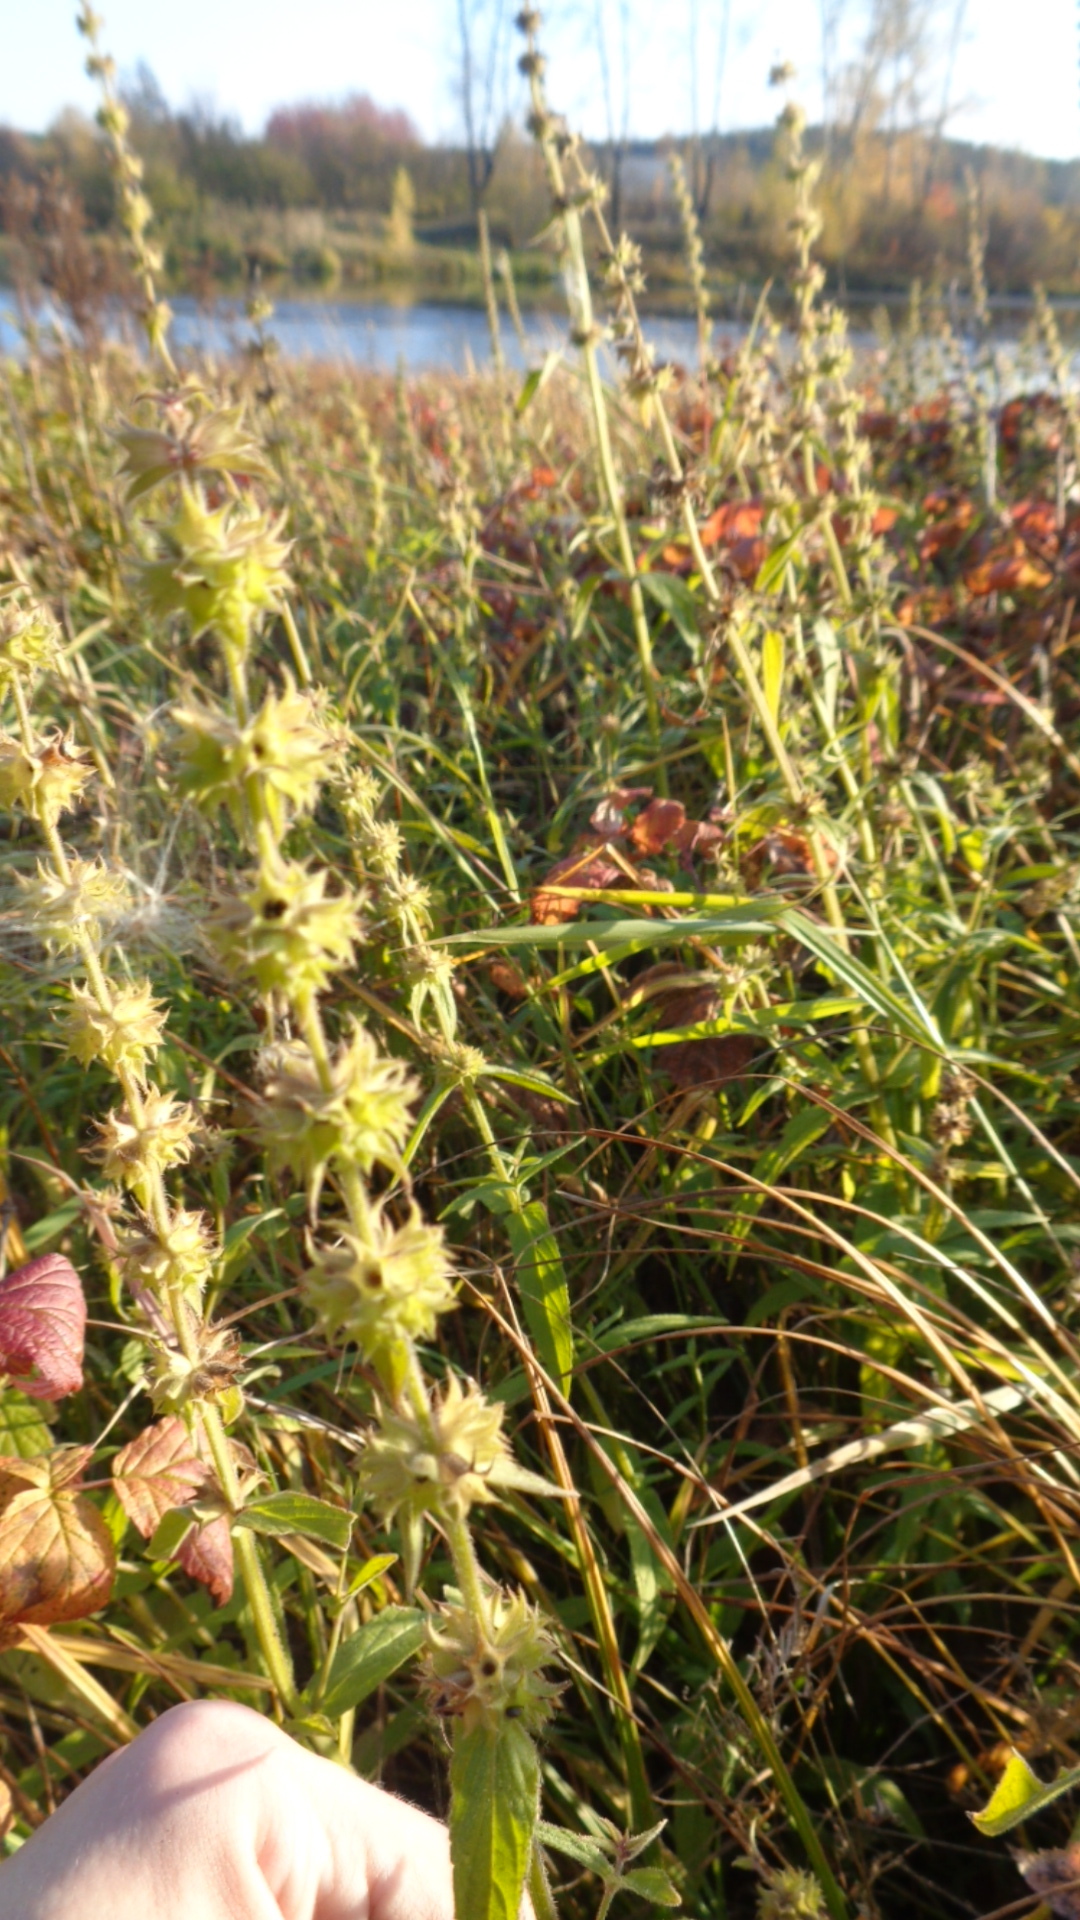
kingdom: Plantae
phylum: Tracheophyta
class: Magnoliopsida
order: Lamiales
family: Lamiaceae
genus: Stachys
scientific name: Stachys palustris
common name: Marsh woundwort
